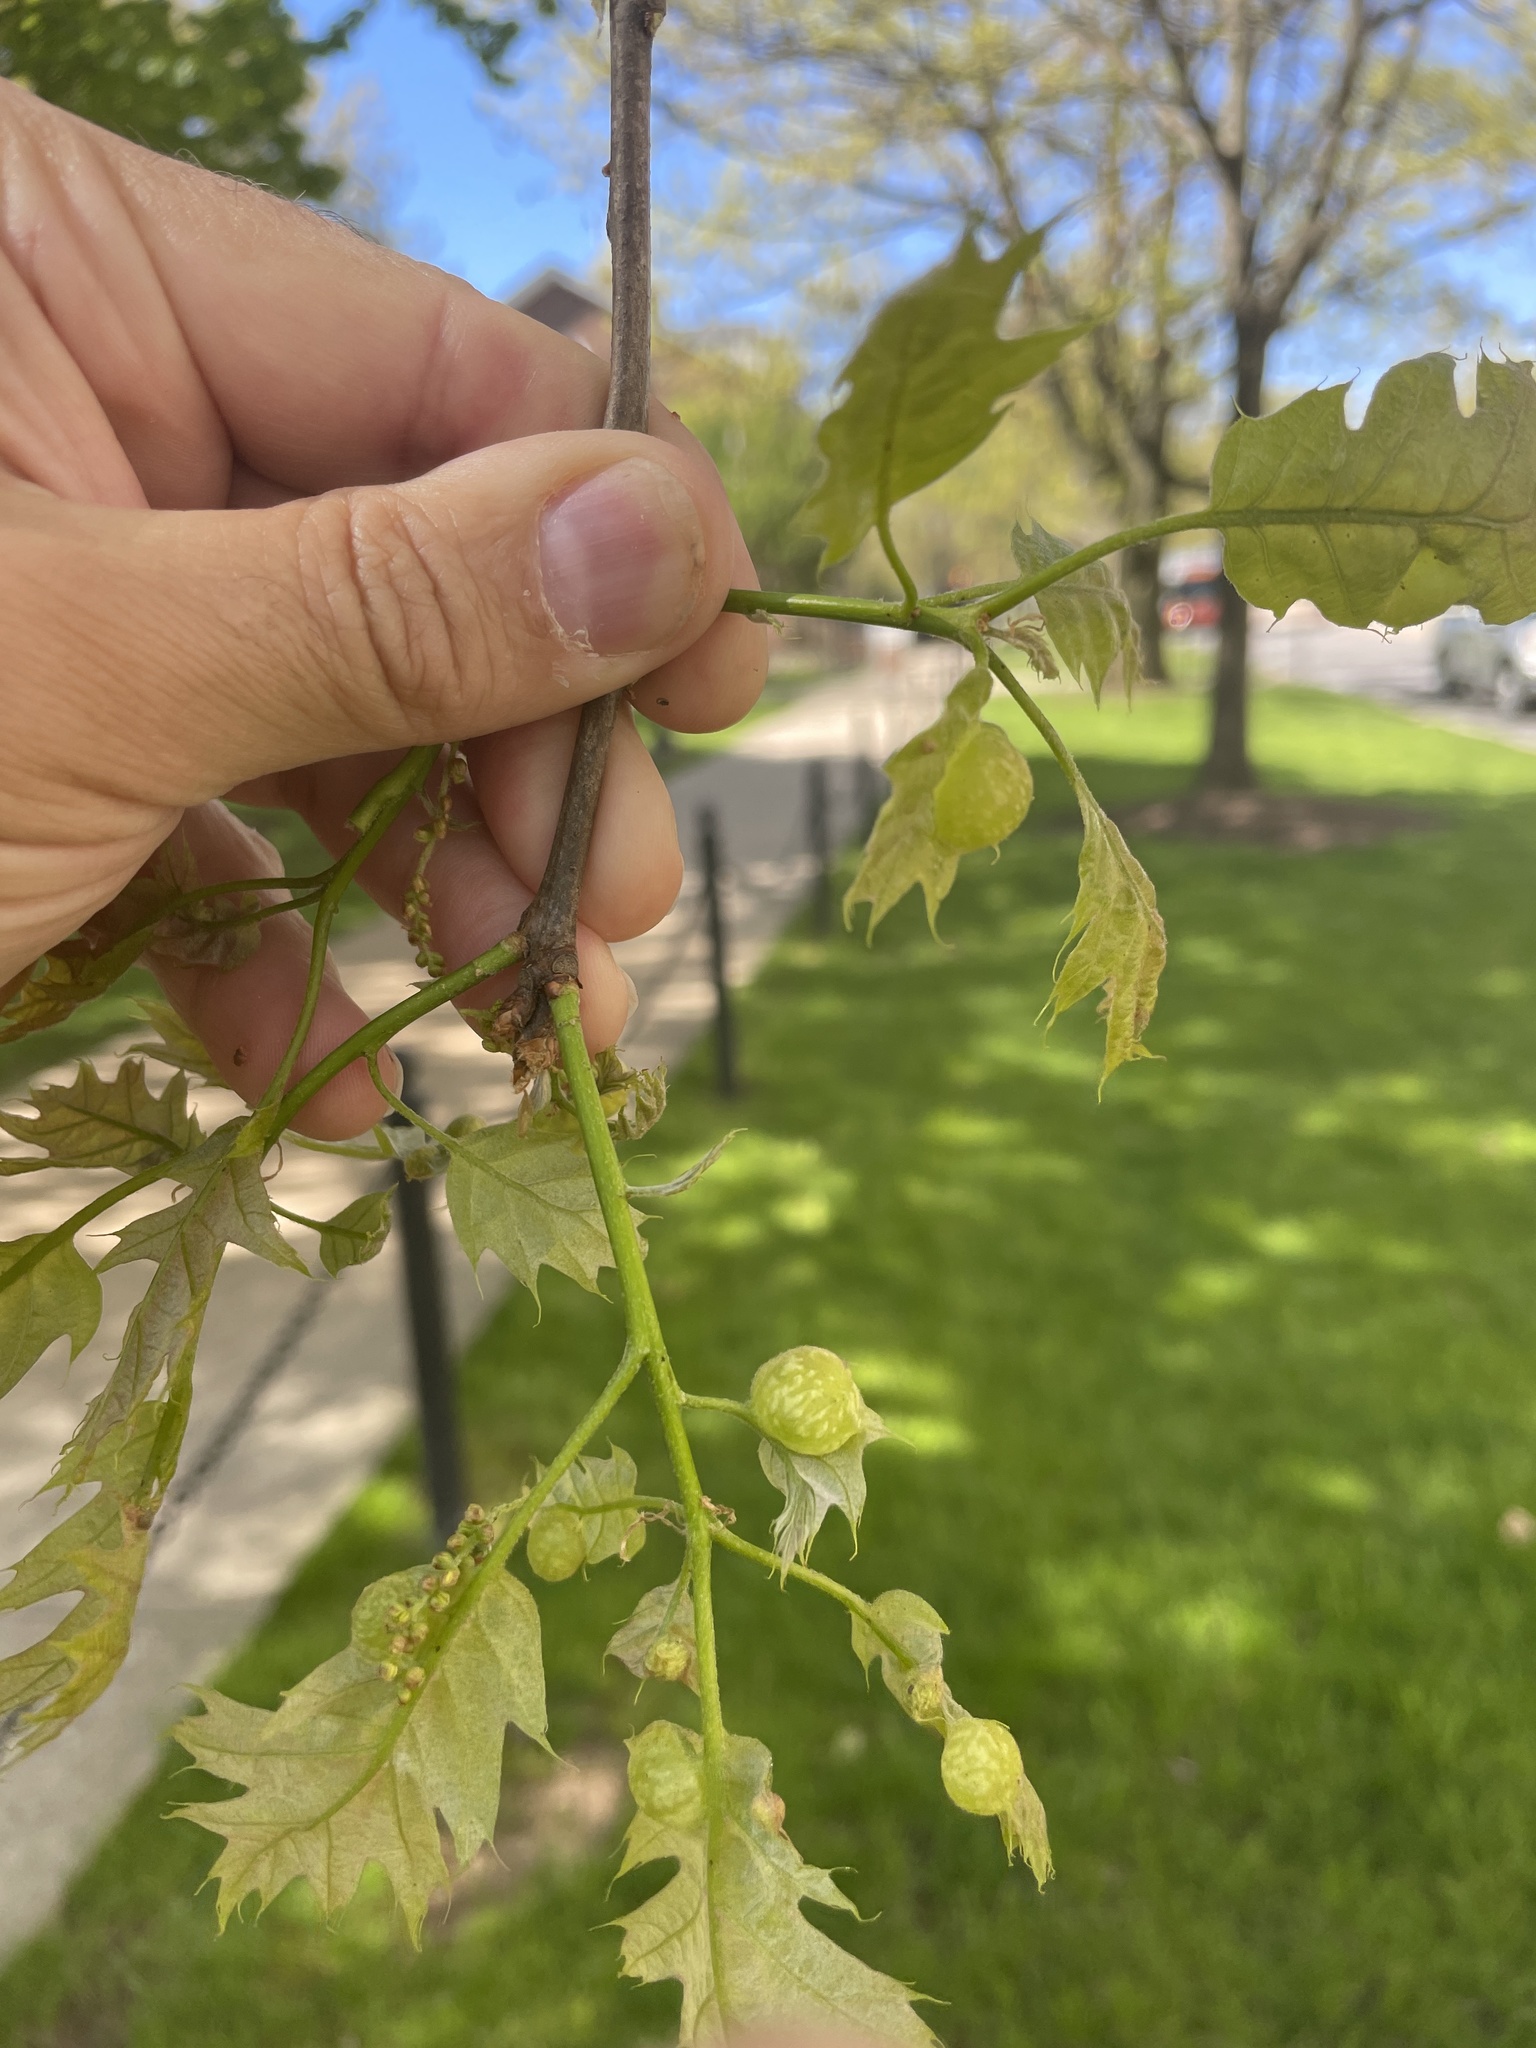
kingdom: Animalia
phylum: Arthropoda
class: Insecta
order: Hymenoptera
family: Cynipidae
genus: Dryocosmus
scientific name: Dryocosmus quercuspalustris
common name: Succulent oak gall wasp
